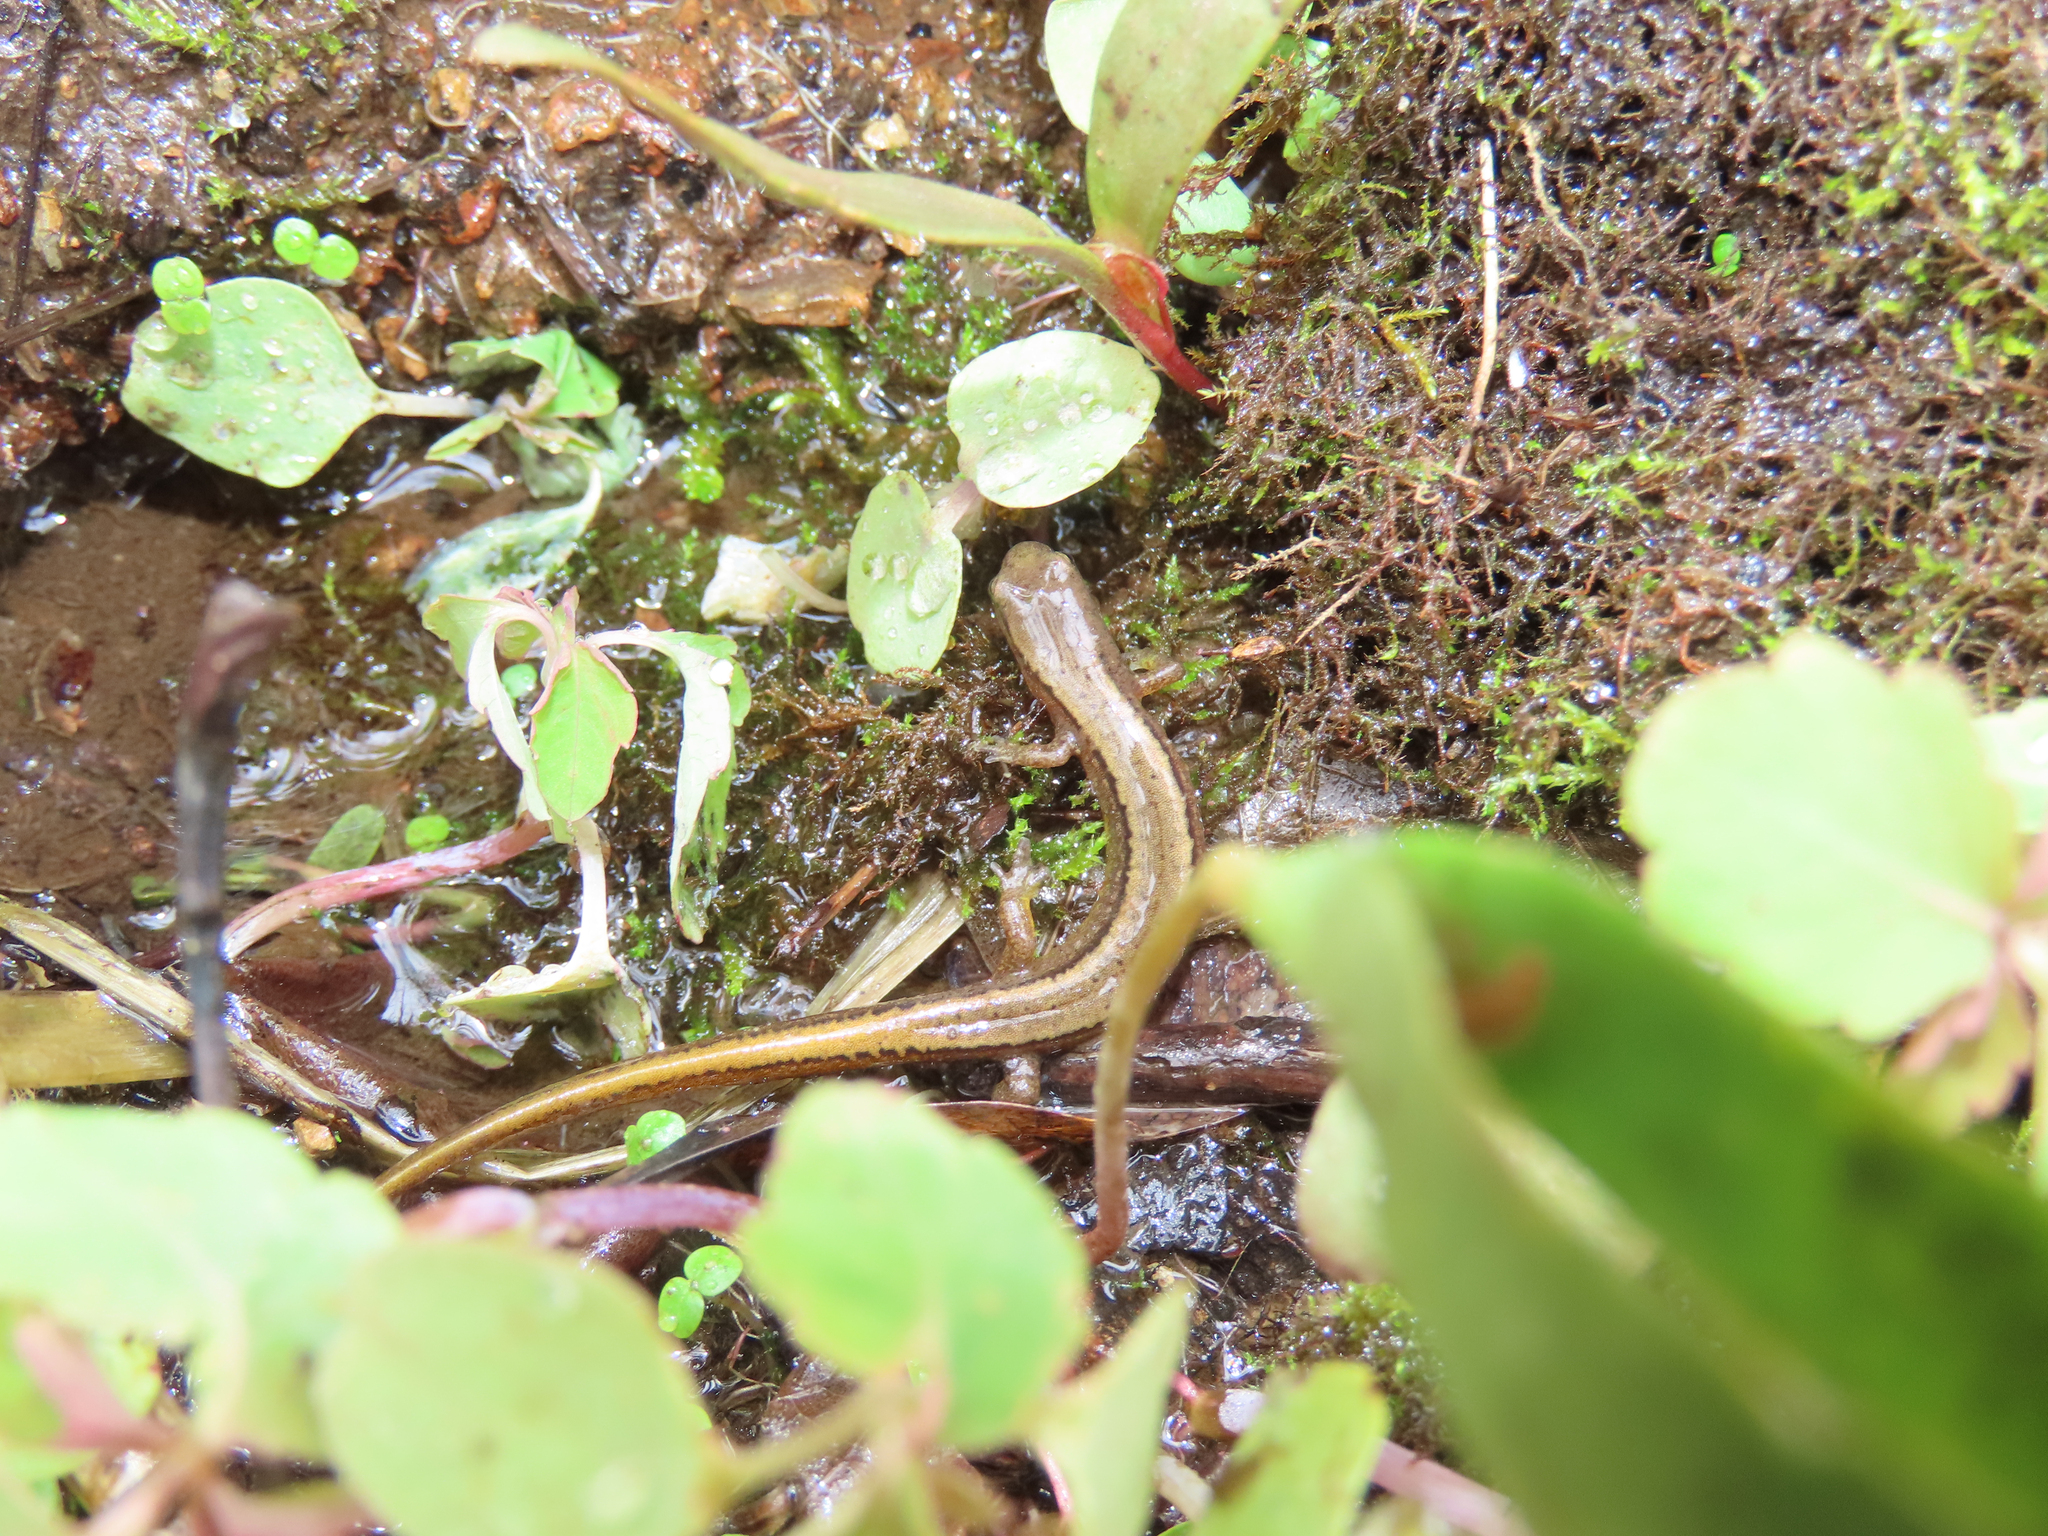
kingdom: Animalia
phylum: Chordata
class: Amphibia
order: Caudata
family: Plethodontidae
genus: Eurycea
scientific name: Eurycea bislineata
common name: Northern two-lined salamander
